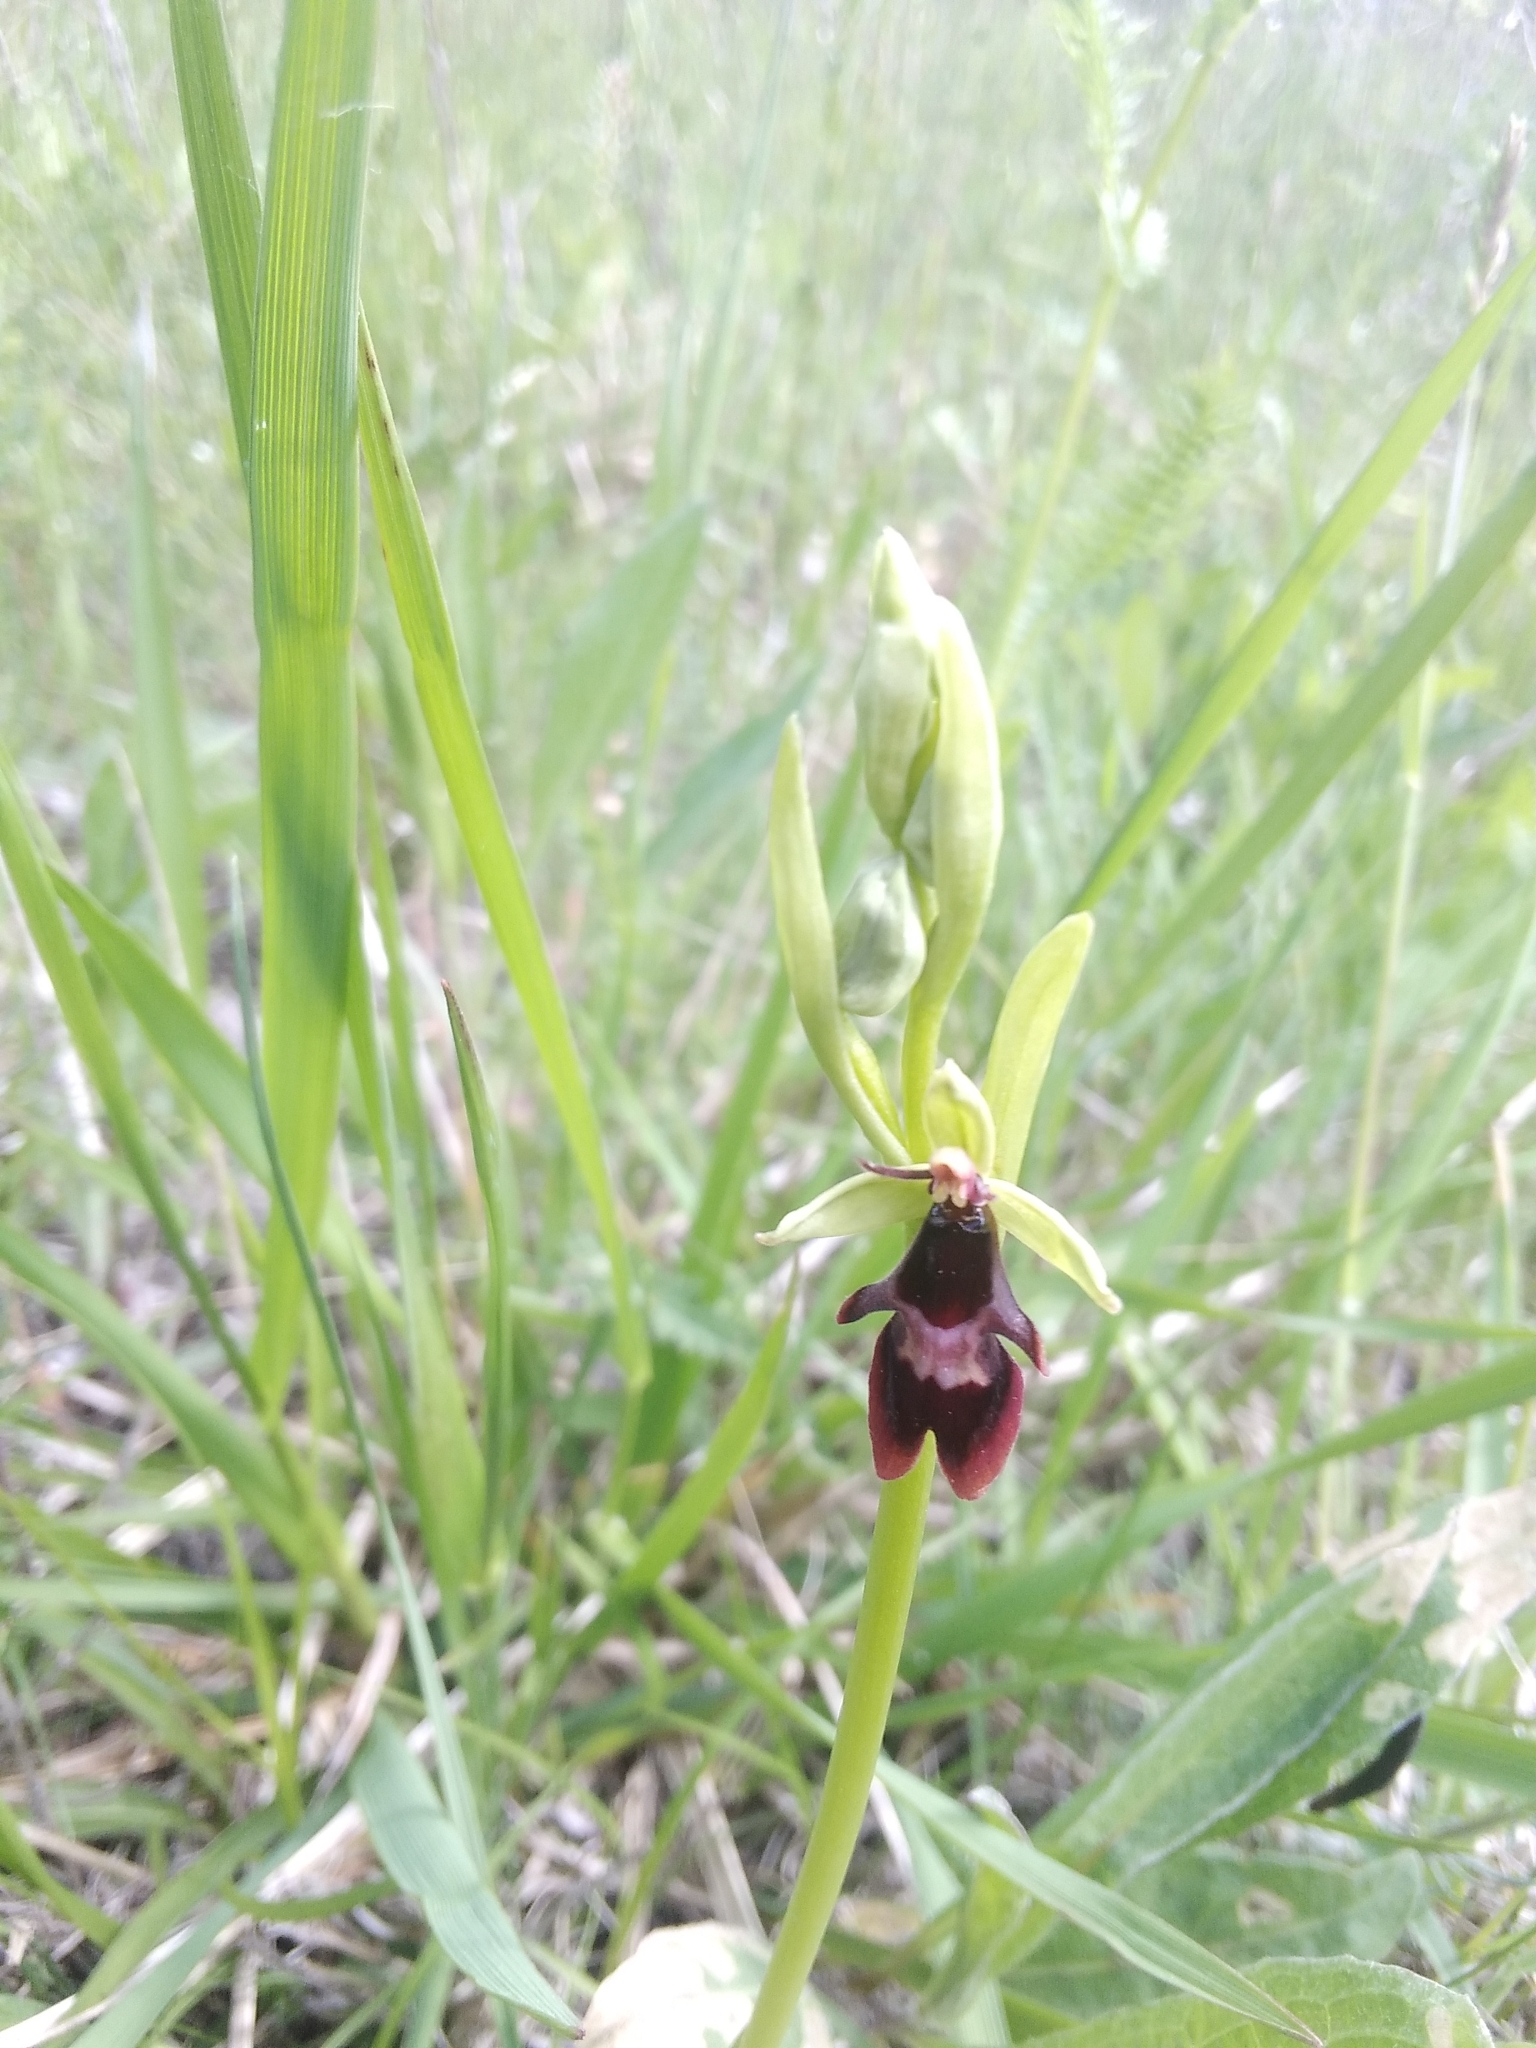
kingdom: Plantae
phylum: Tracheophyta
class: Liliopsida
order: Asparagales
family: Orchidaceae
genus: Ophrys
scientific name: Ophrys insectifera
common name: Fly orchid
